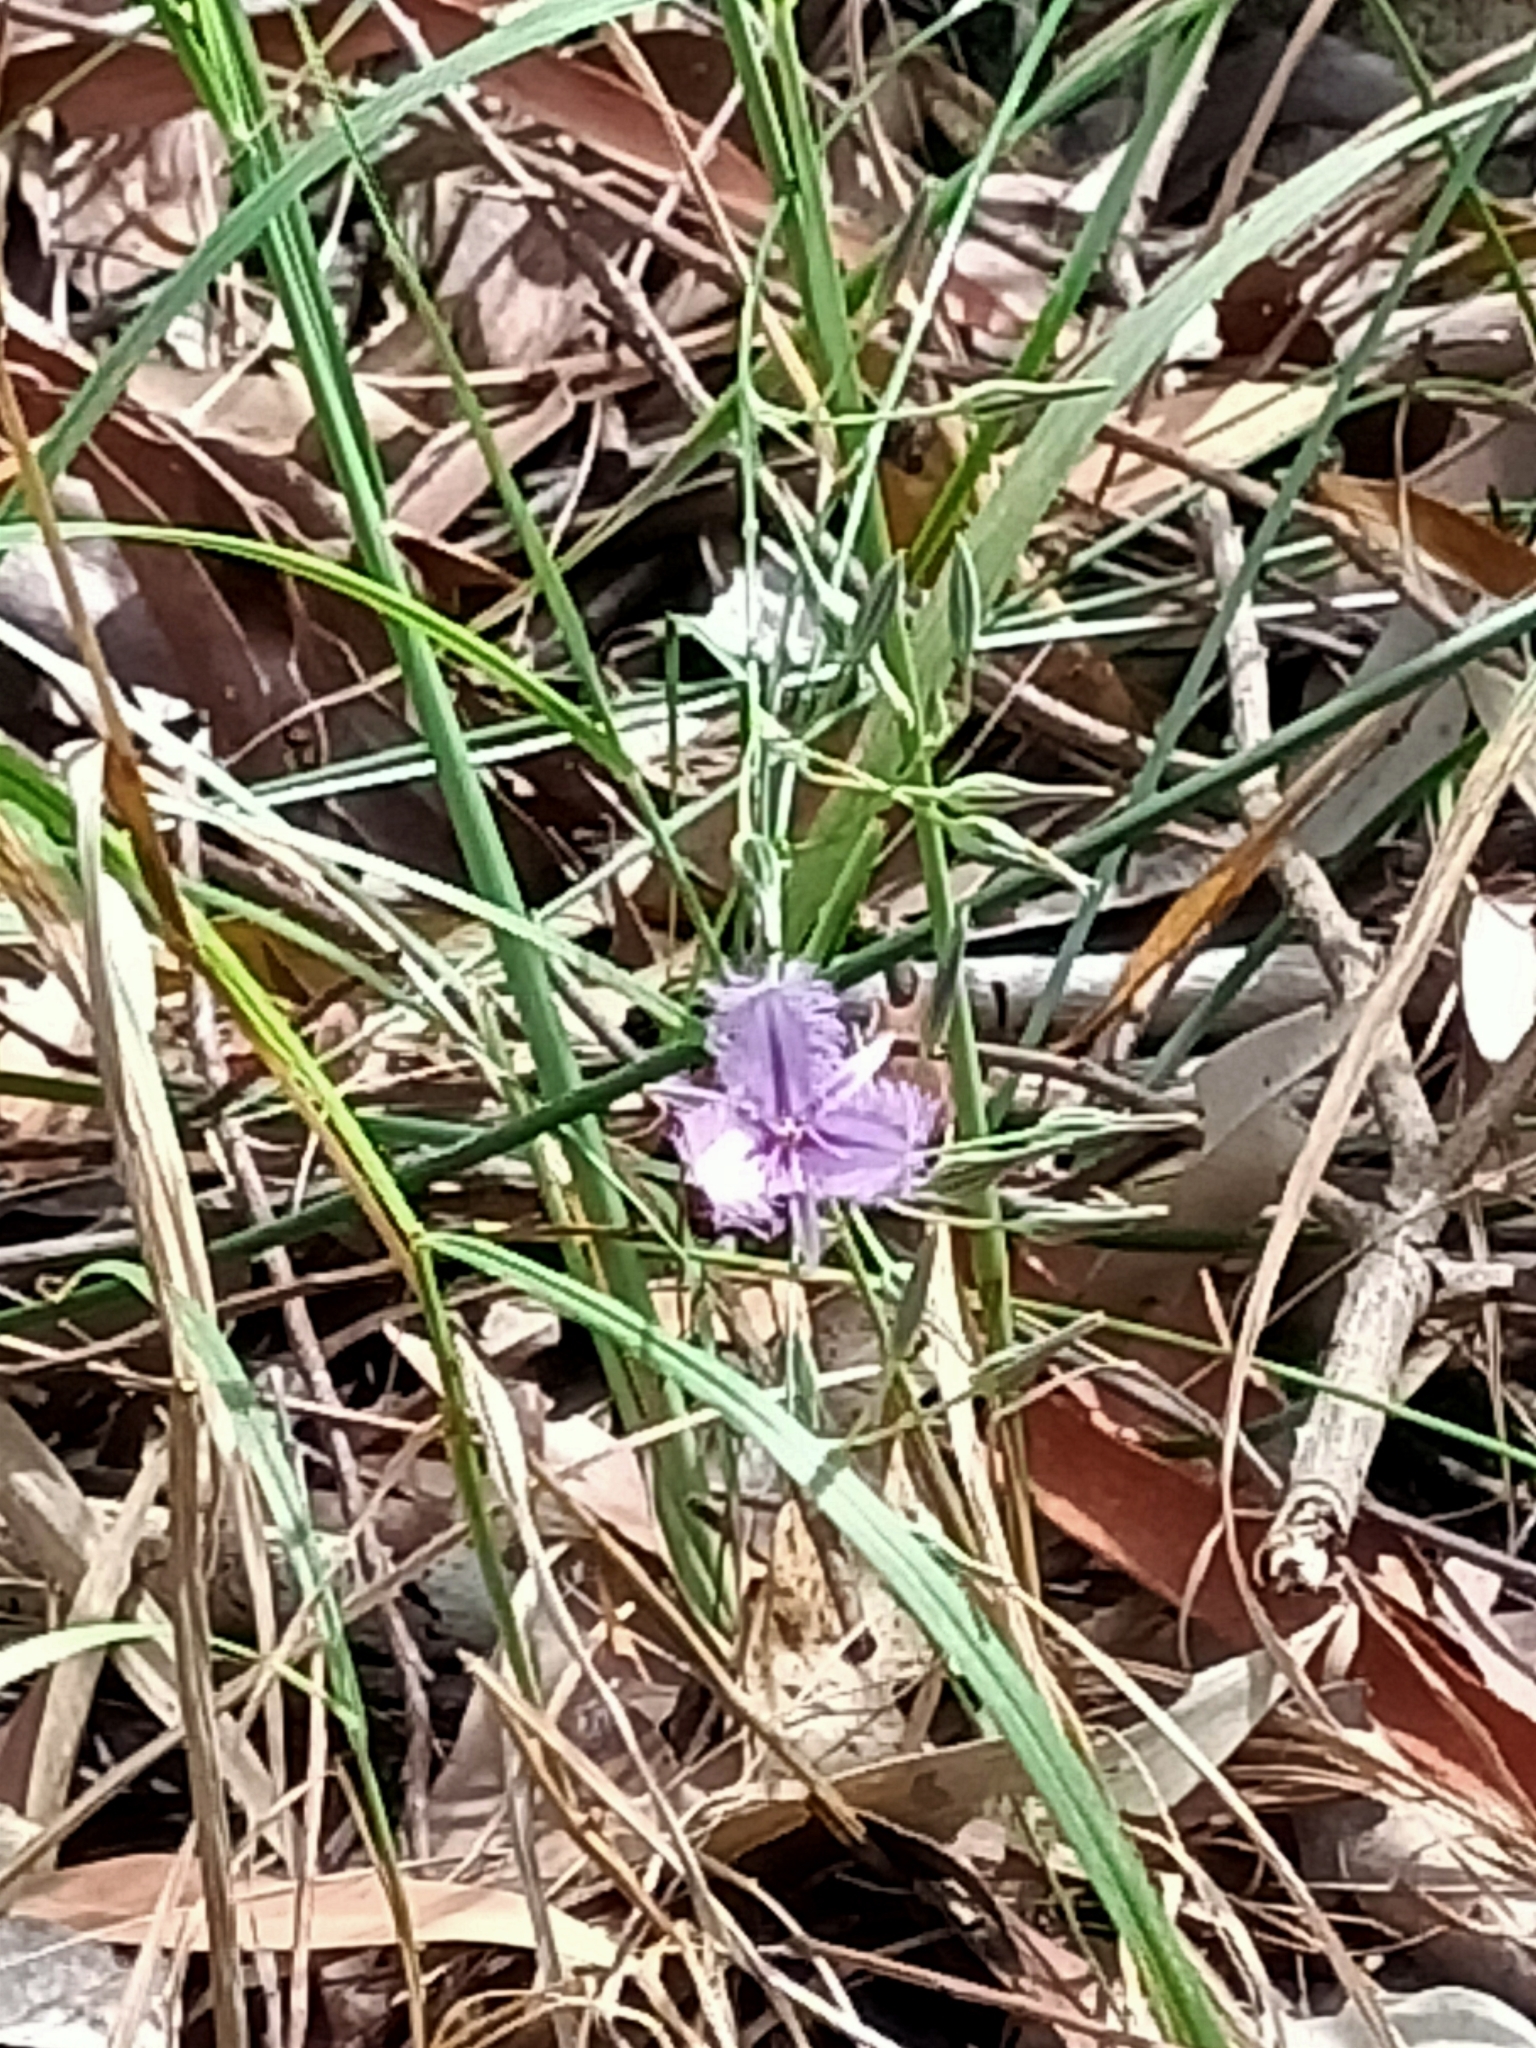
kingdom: Plantae
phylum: Tracheophyta
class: Liliopsida
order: Asparagales
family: Asparagaceae
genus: Thysanotus
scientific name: Thysanotus tuberosus
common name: Common fringed-lily
